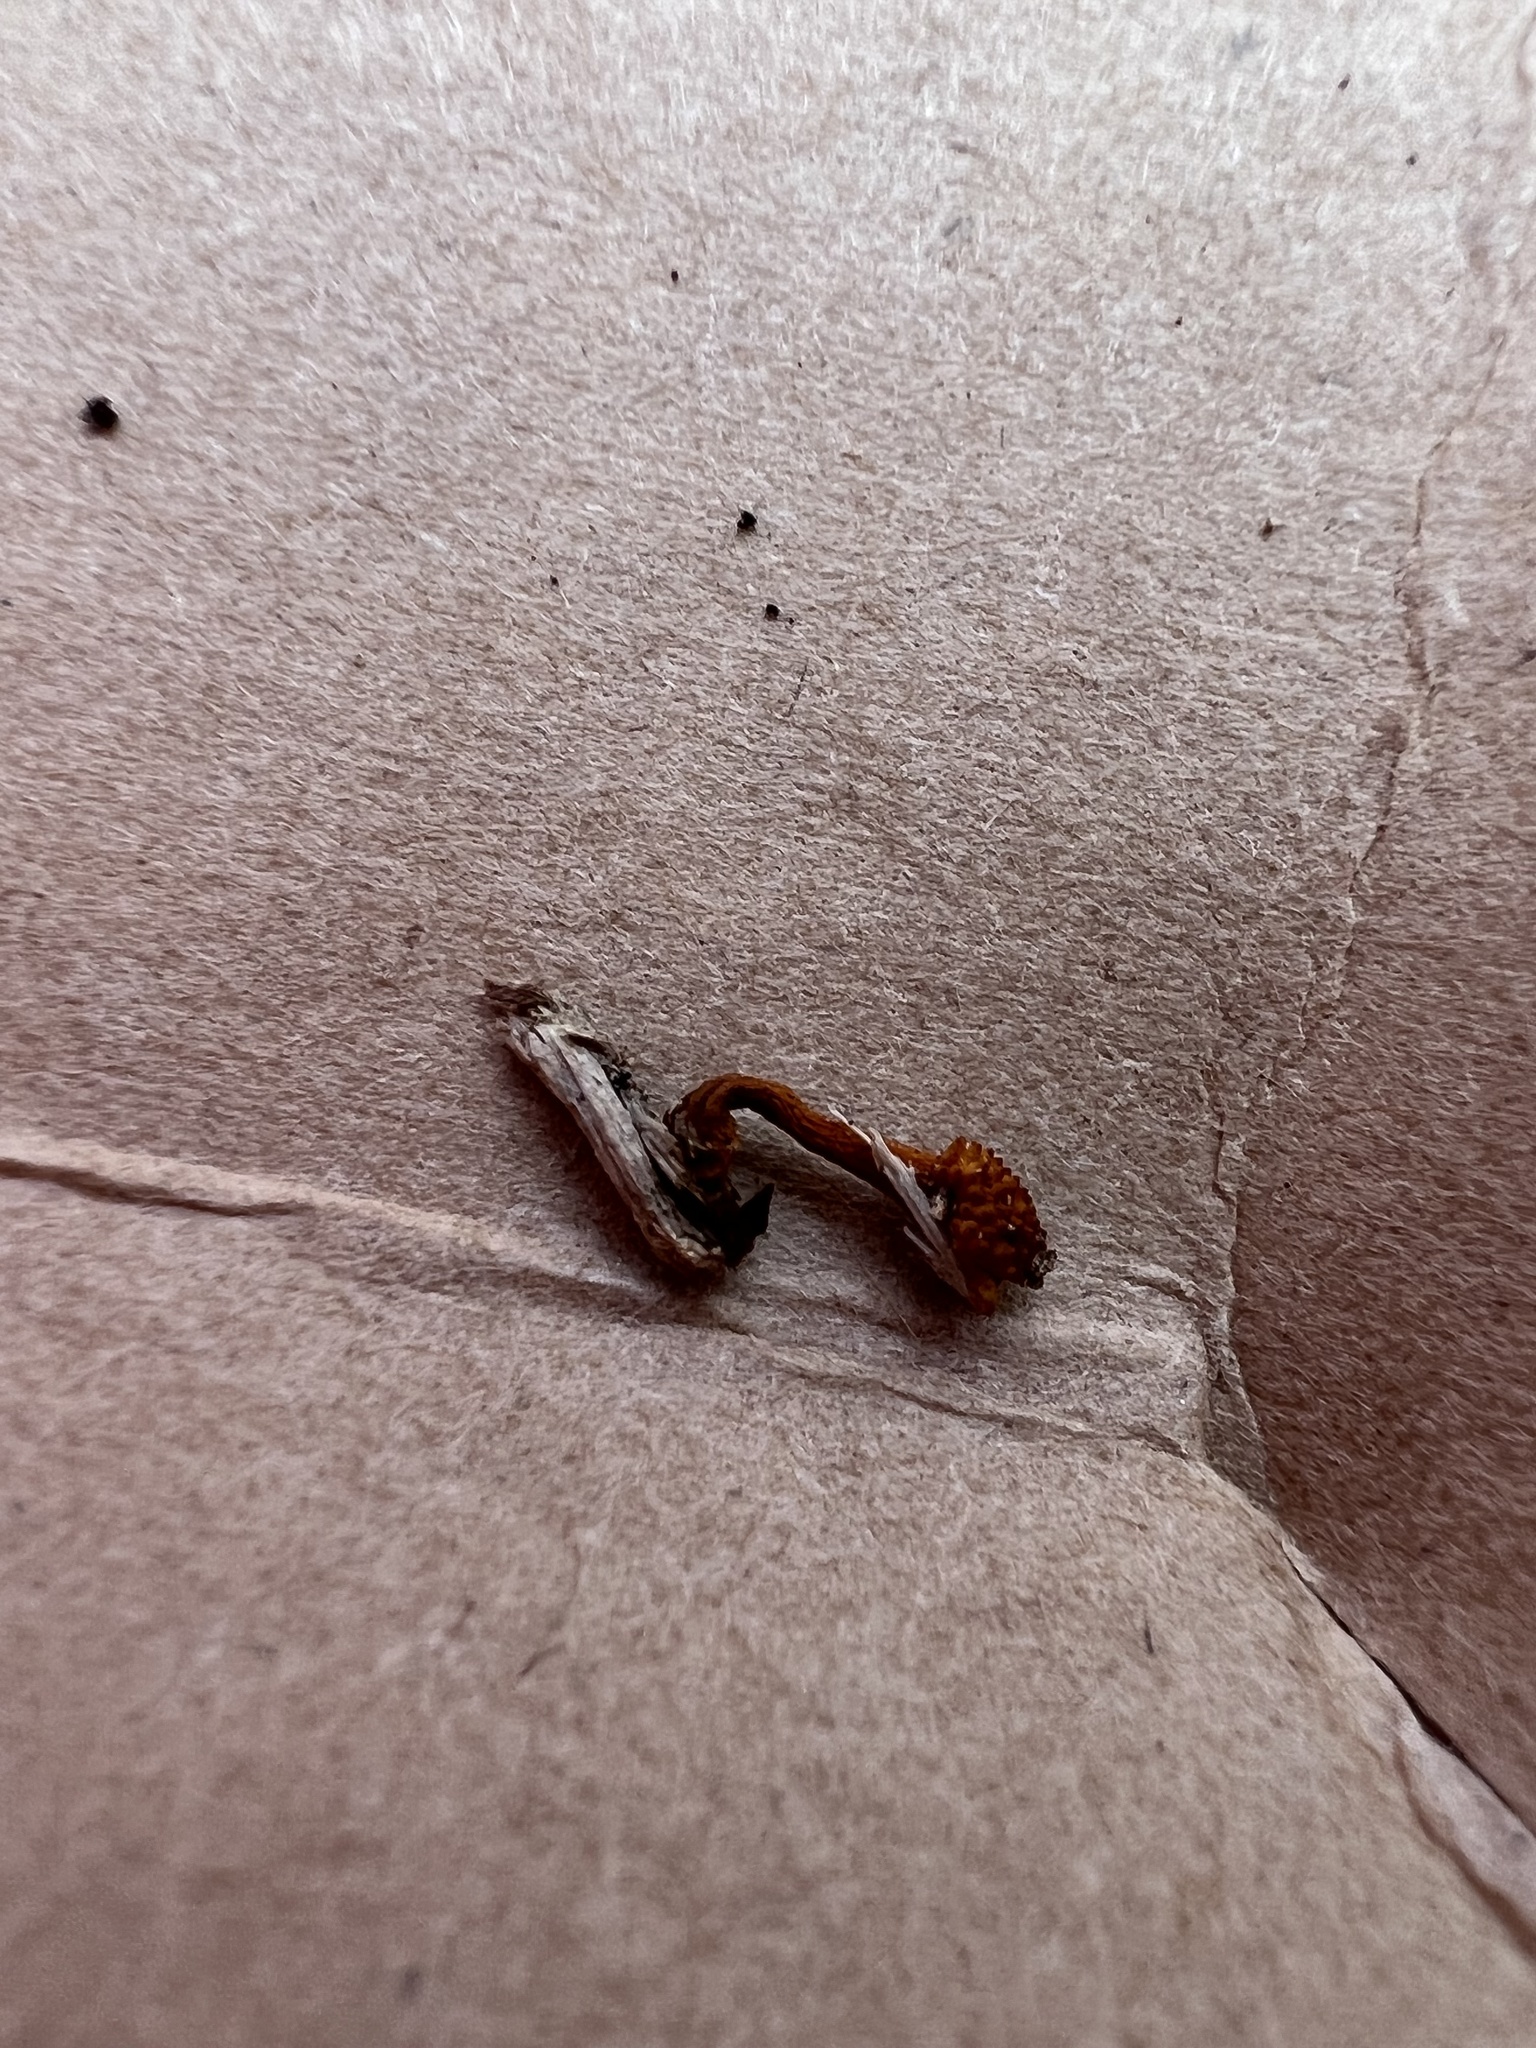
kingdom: Fungi
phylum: Ascomycota
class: Sordariomycetes
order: Hypocreales
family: Ophiocordycipitaceae
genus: Ophiocordyceps
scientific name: Ophiocordyceps variabilis
